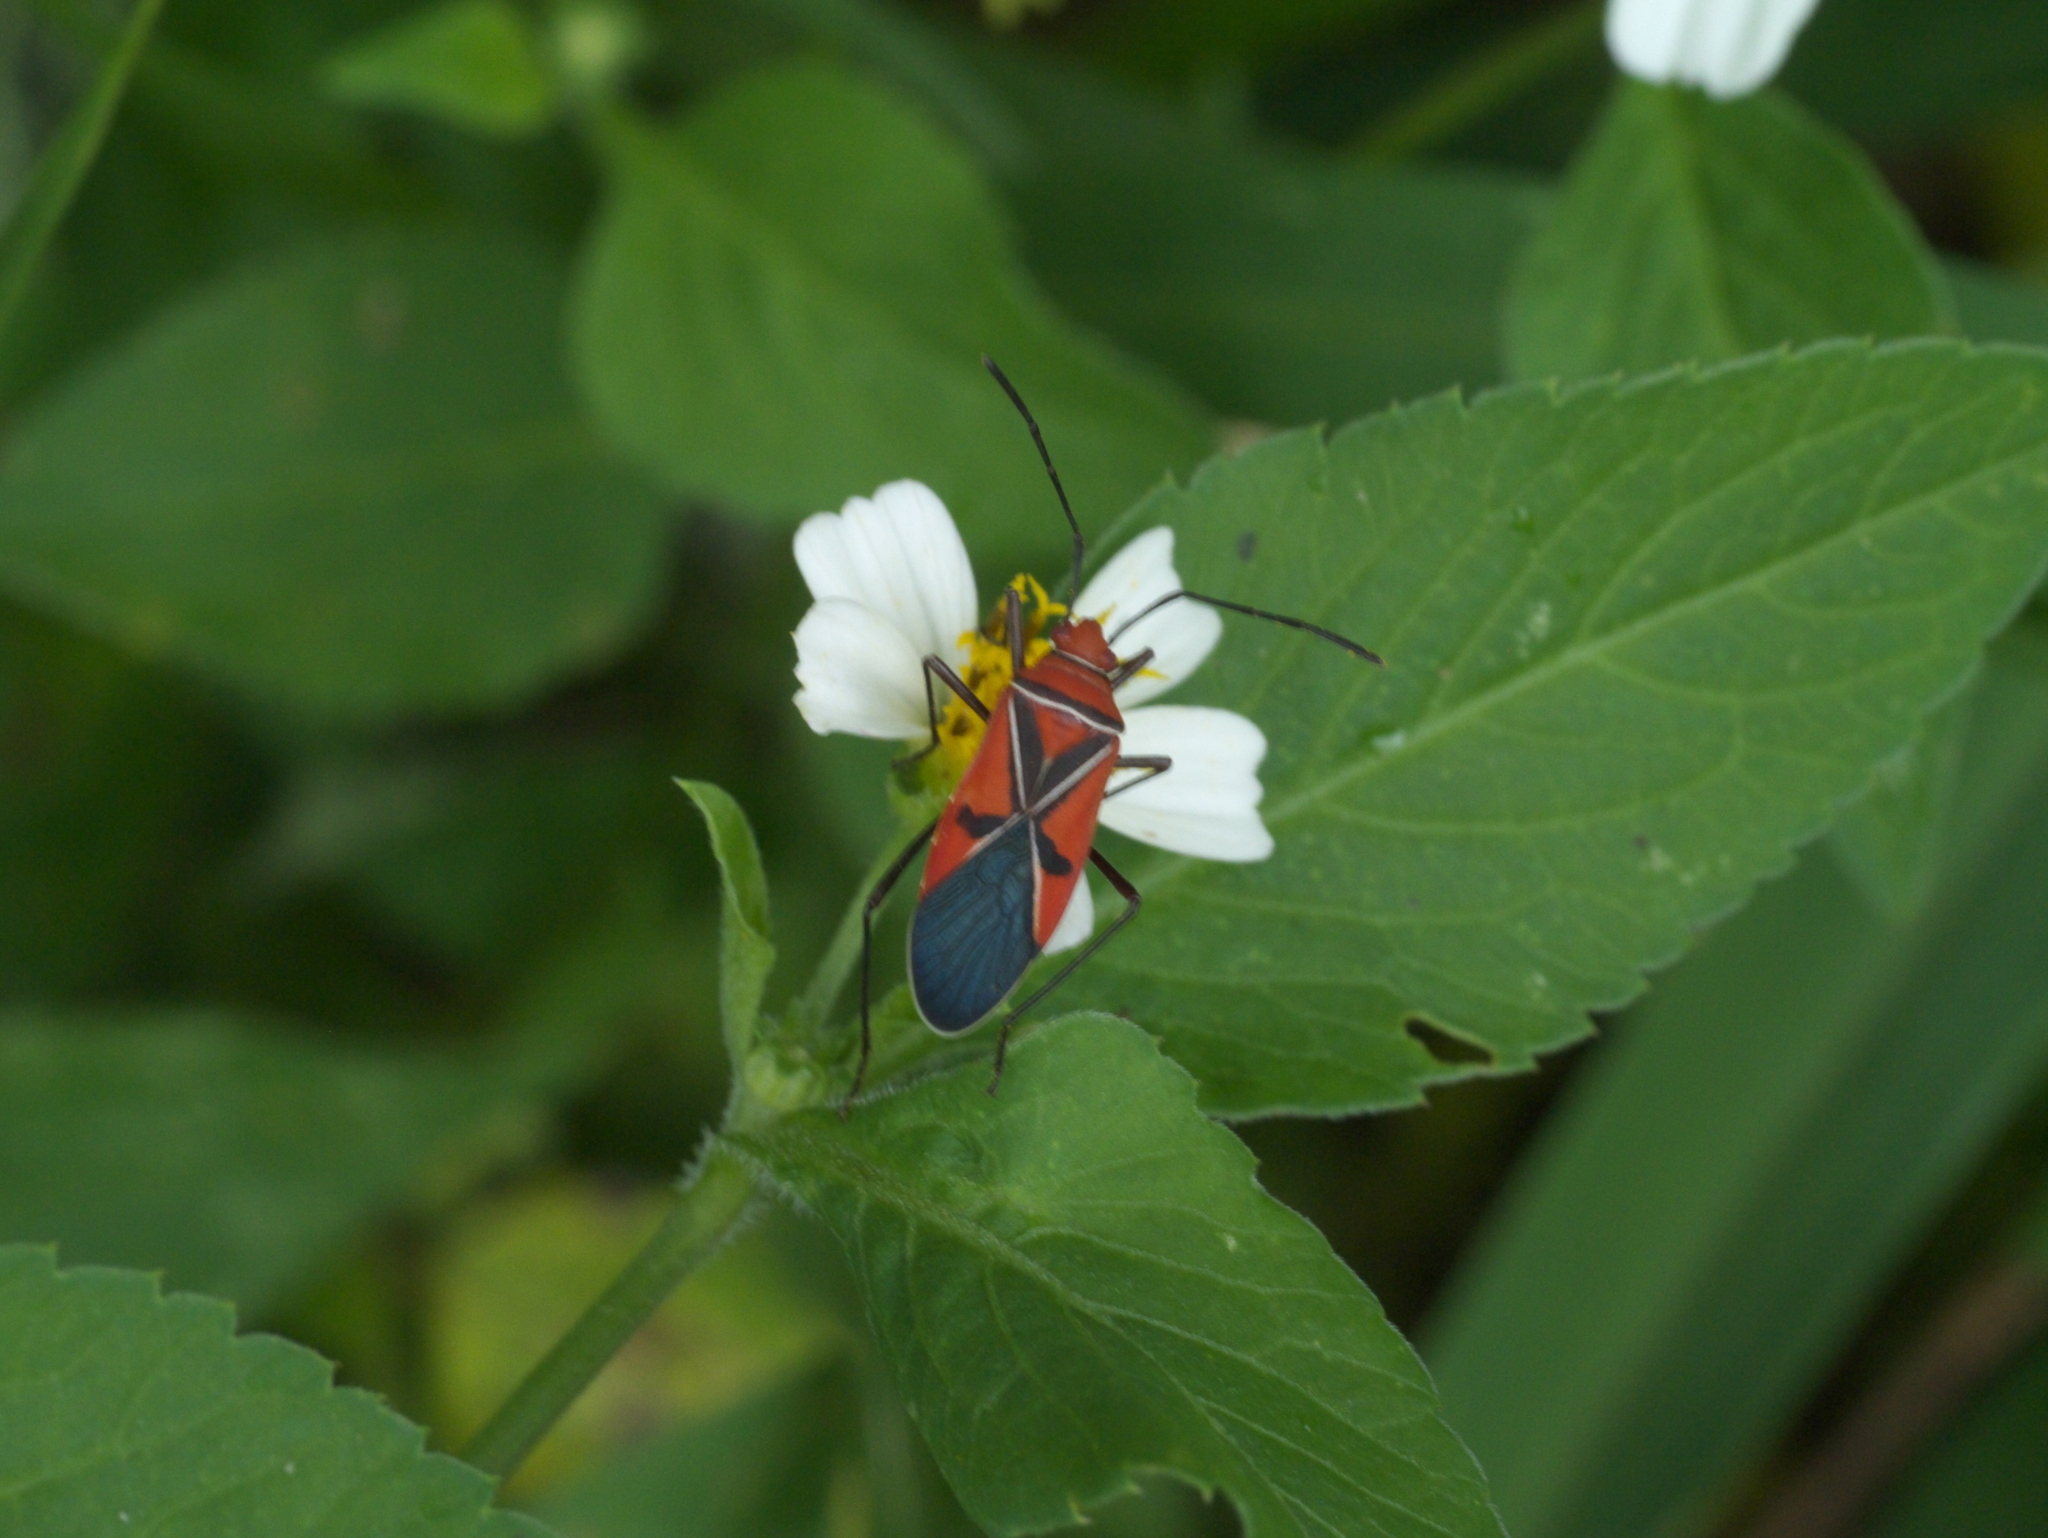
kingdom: Animalia
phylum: Arthropoda
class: Insecta
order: Hemiptera
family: Pyrrhocoridae
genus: Dysdercus
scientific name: Dysdercus andreae
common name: St. andrew's cotton stainer
